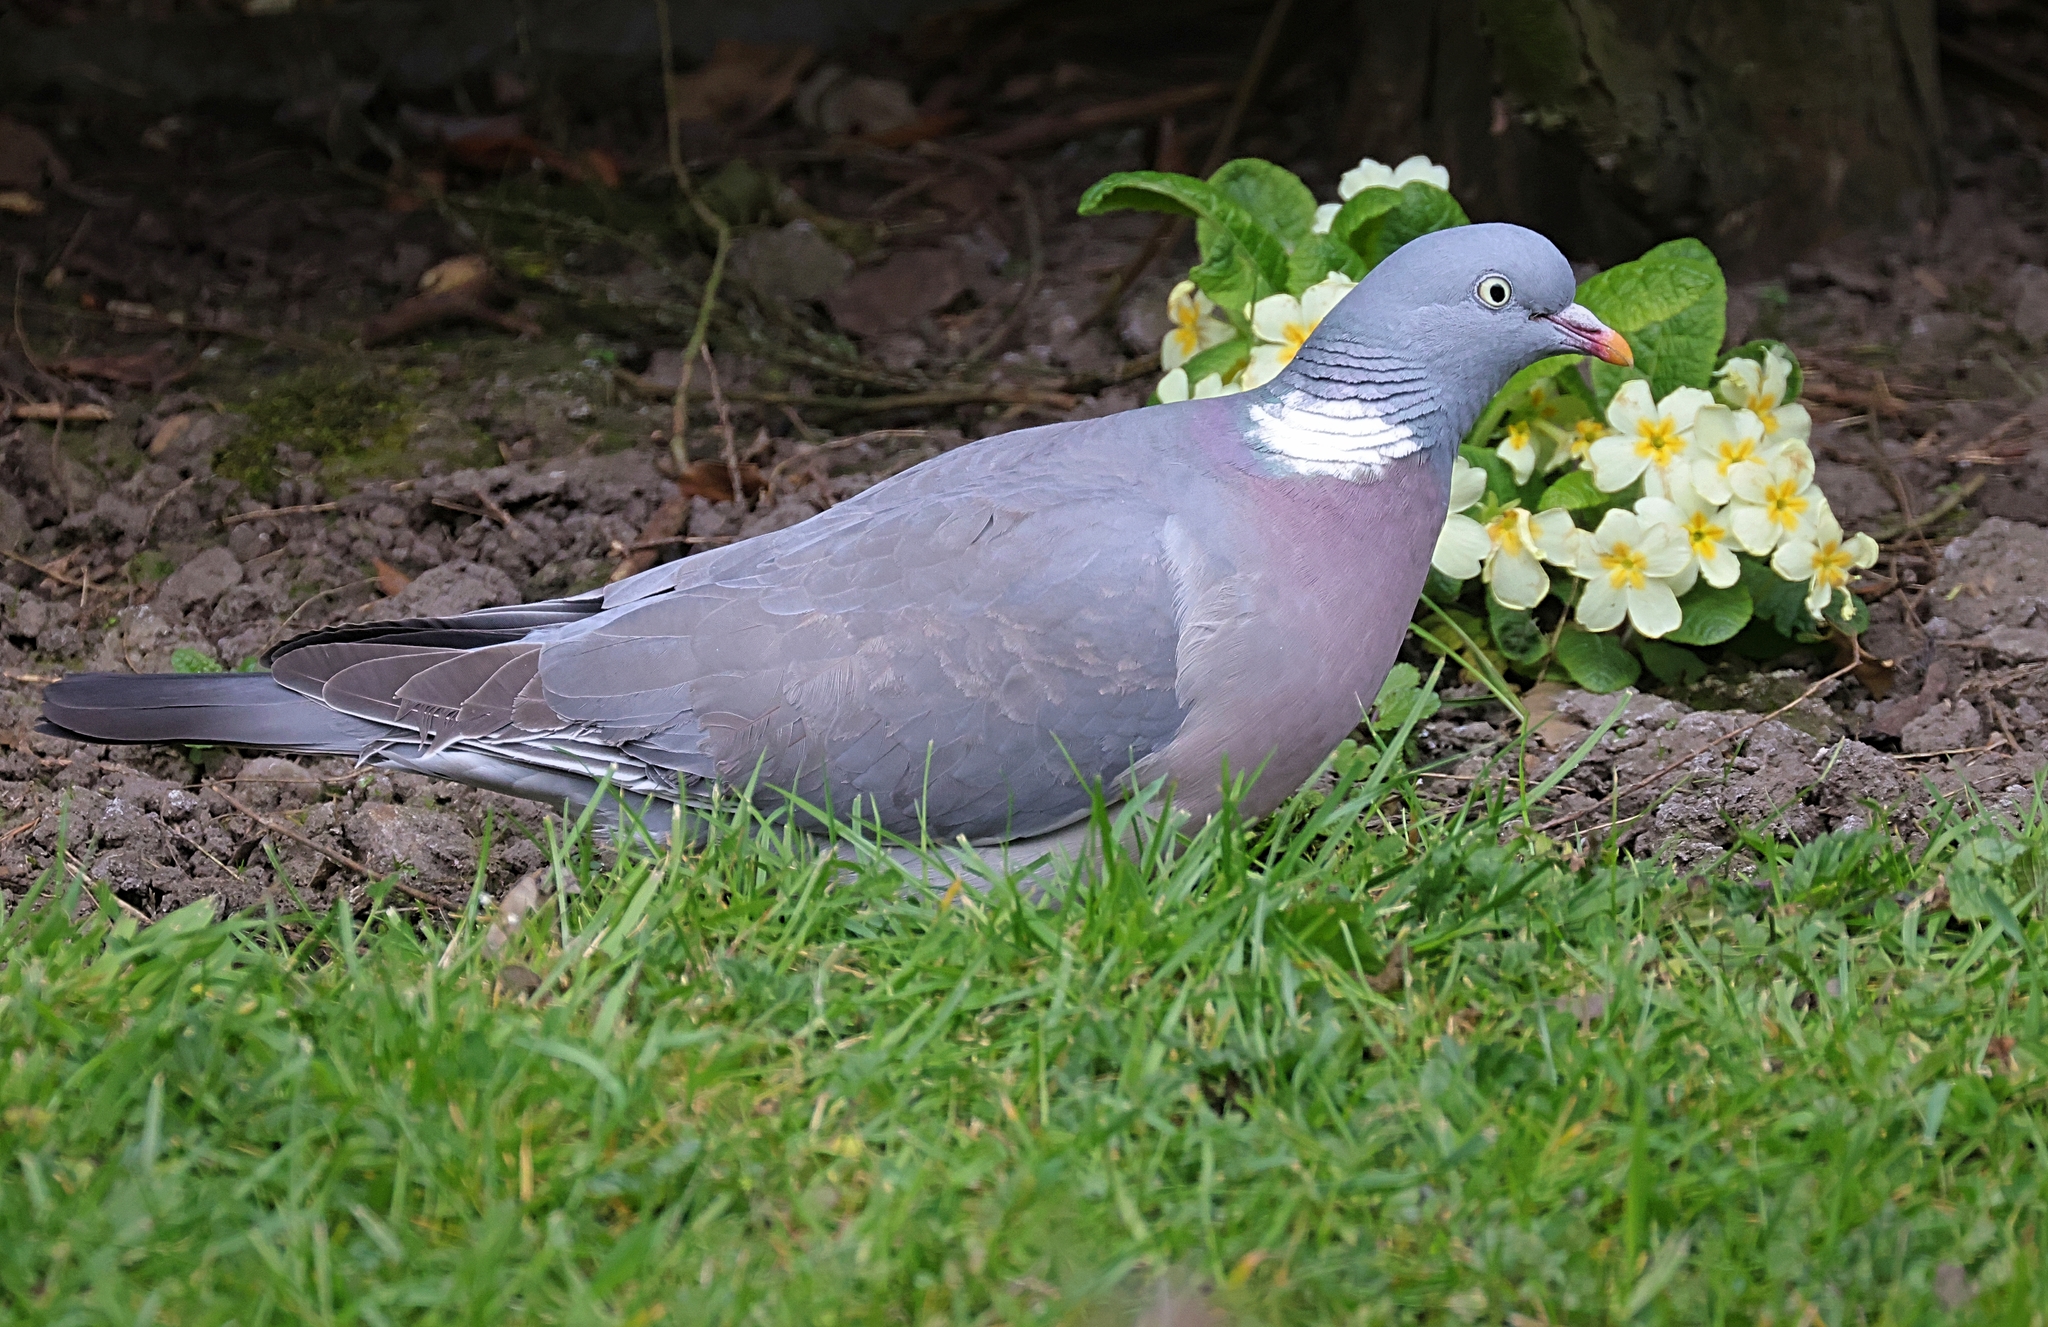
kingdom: Animalia
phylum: Chordata
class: Aves
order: Columbiformes
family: Columbidae
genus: Columba
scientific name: Columba palumbus
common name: Common wood pigeon
